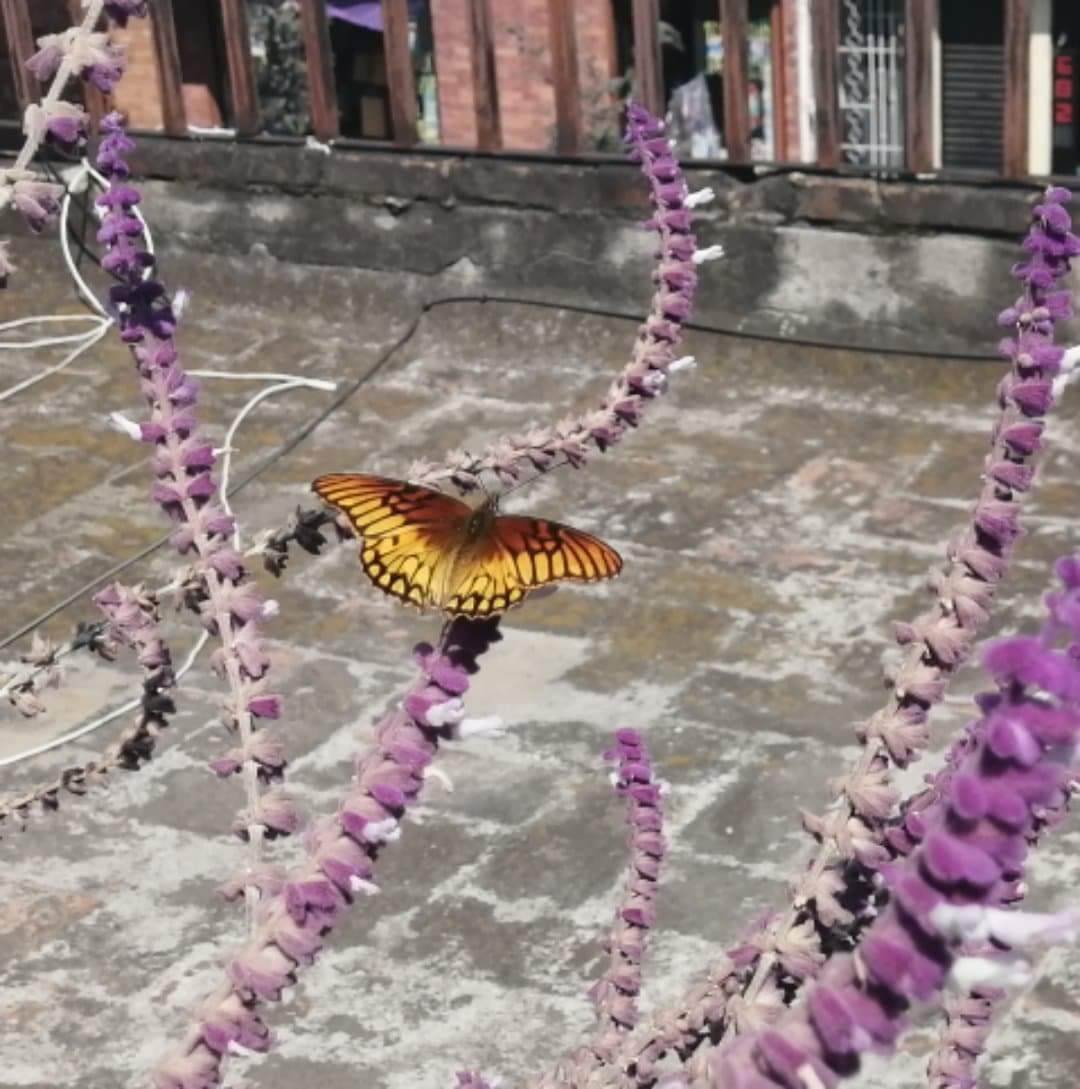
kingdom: Animalia
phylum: Arthropoda
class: Insecta
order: Lepidoptera
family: Nymphalidae
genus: Dione
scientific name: Dione moneta
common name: Mexican silverspot
